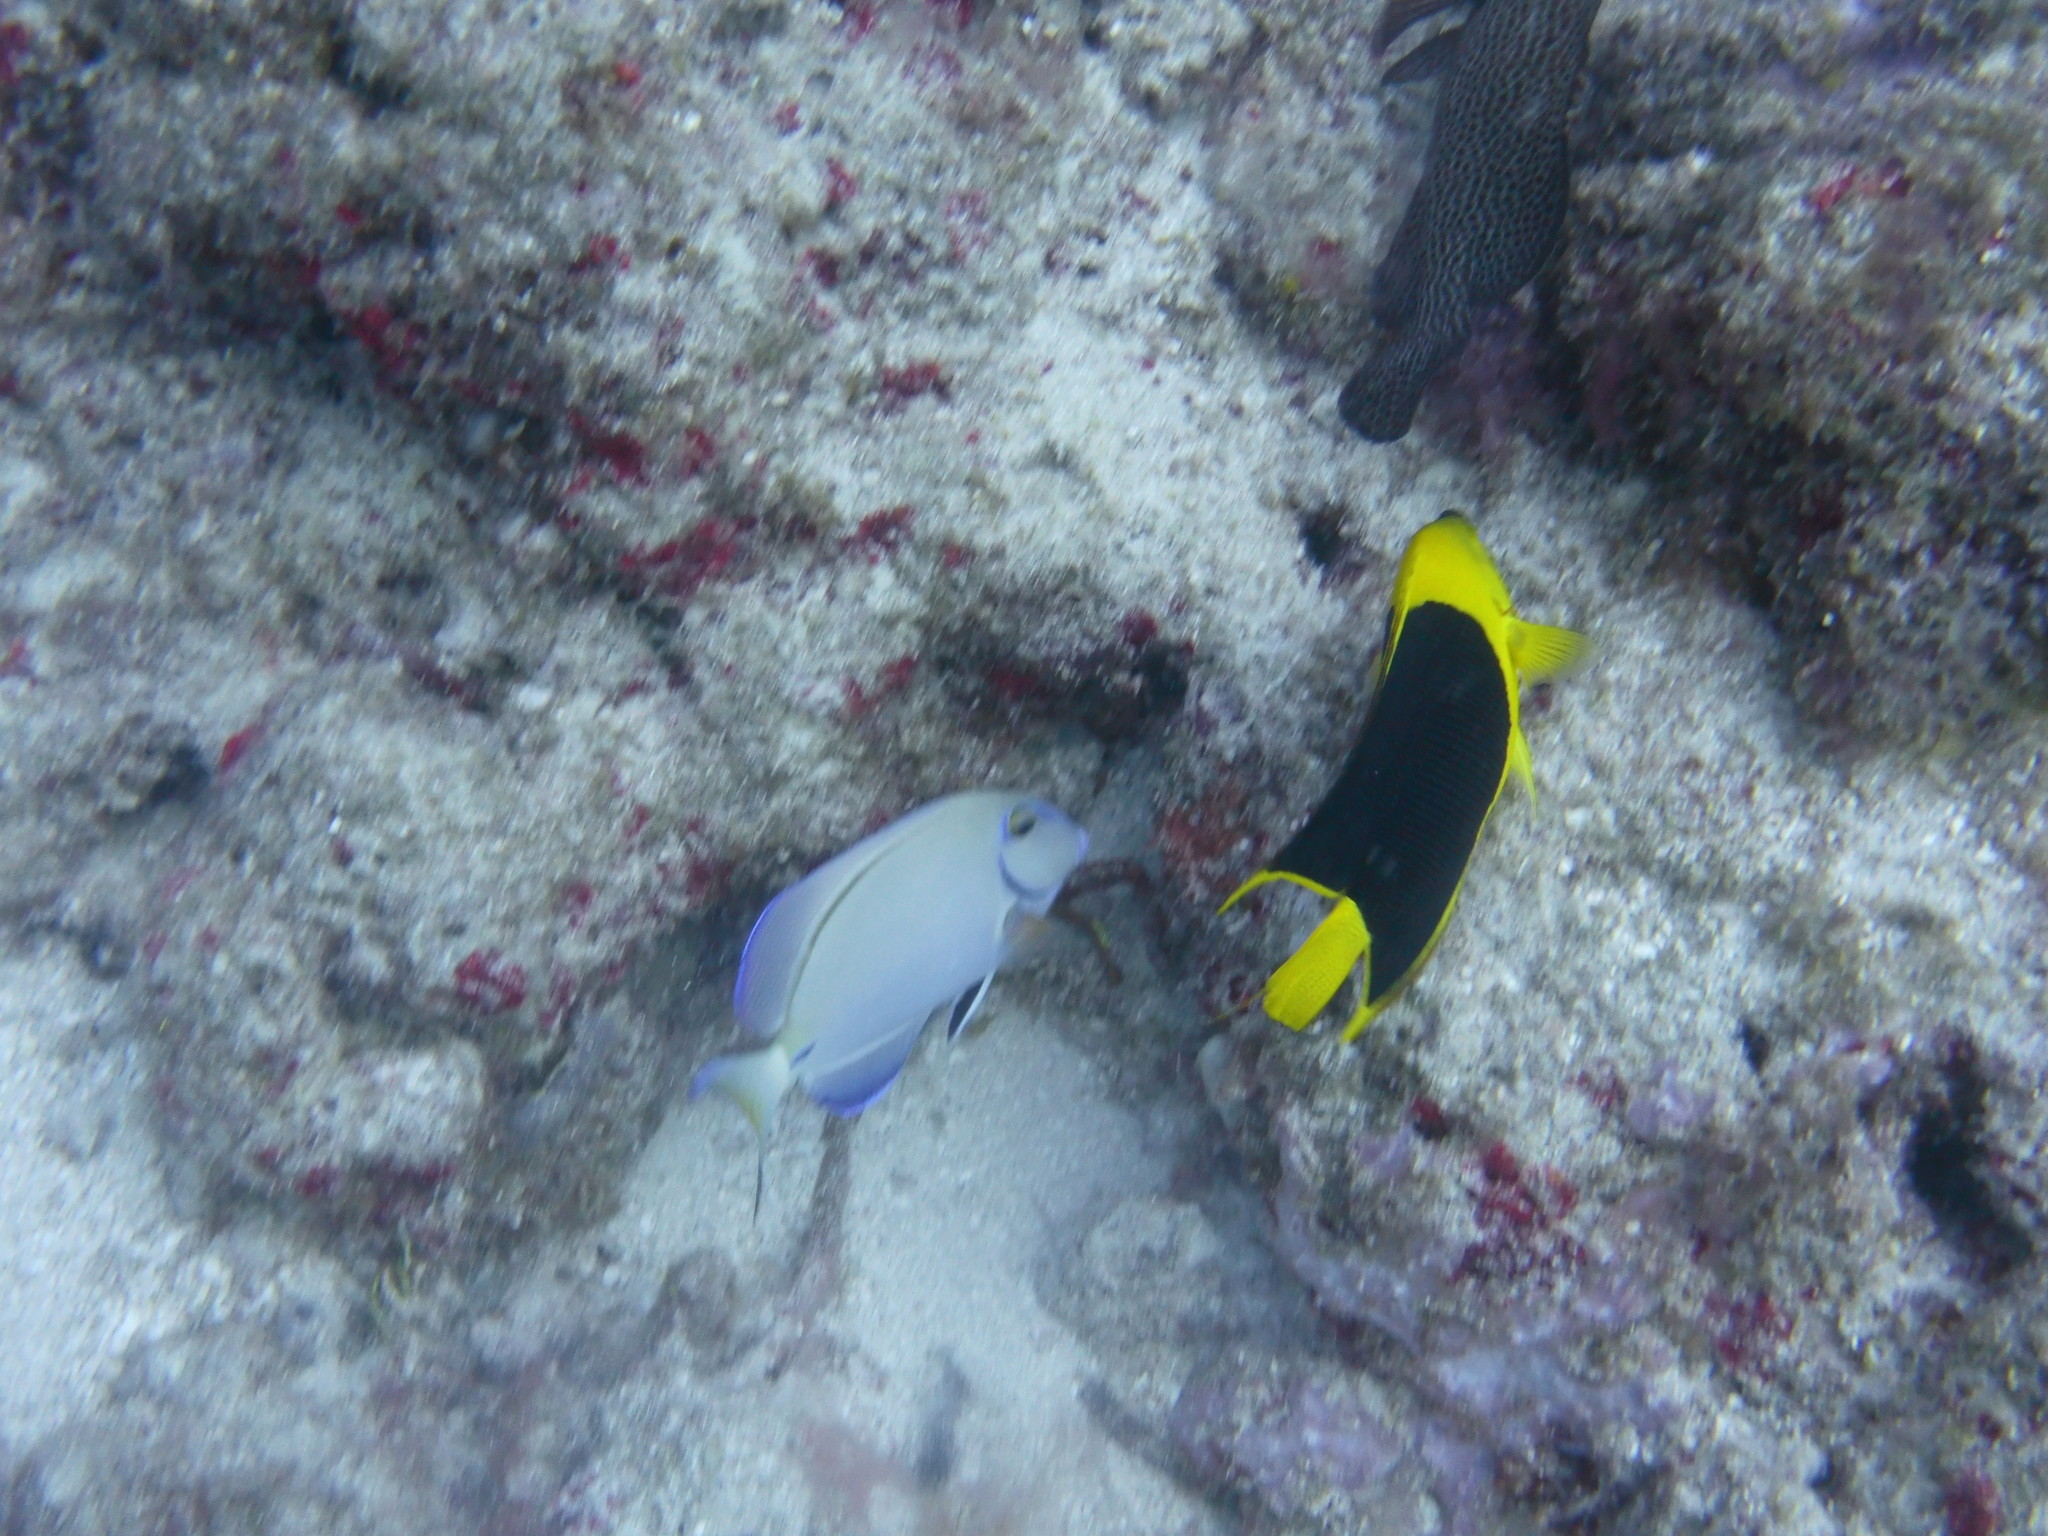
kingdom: Animalia
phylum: Chordata
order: Perciformes
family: Acanthuridae
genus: Acanthurus
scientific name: Acanthurus bahianus
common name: Ocean surgeon
